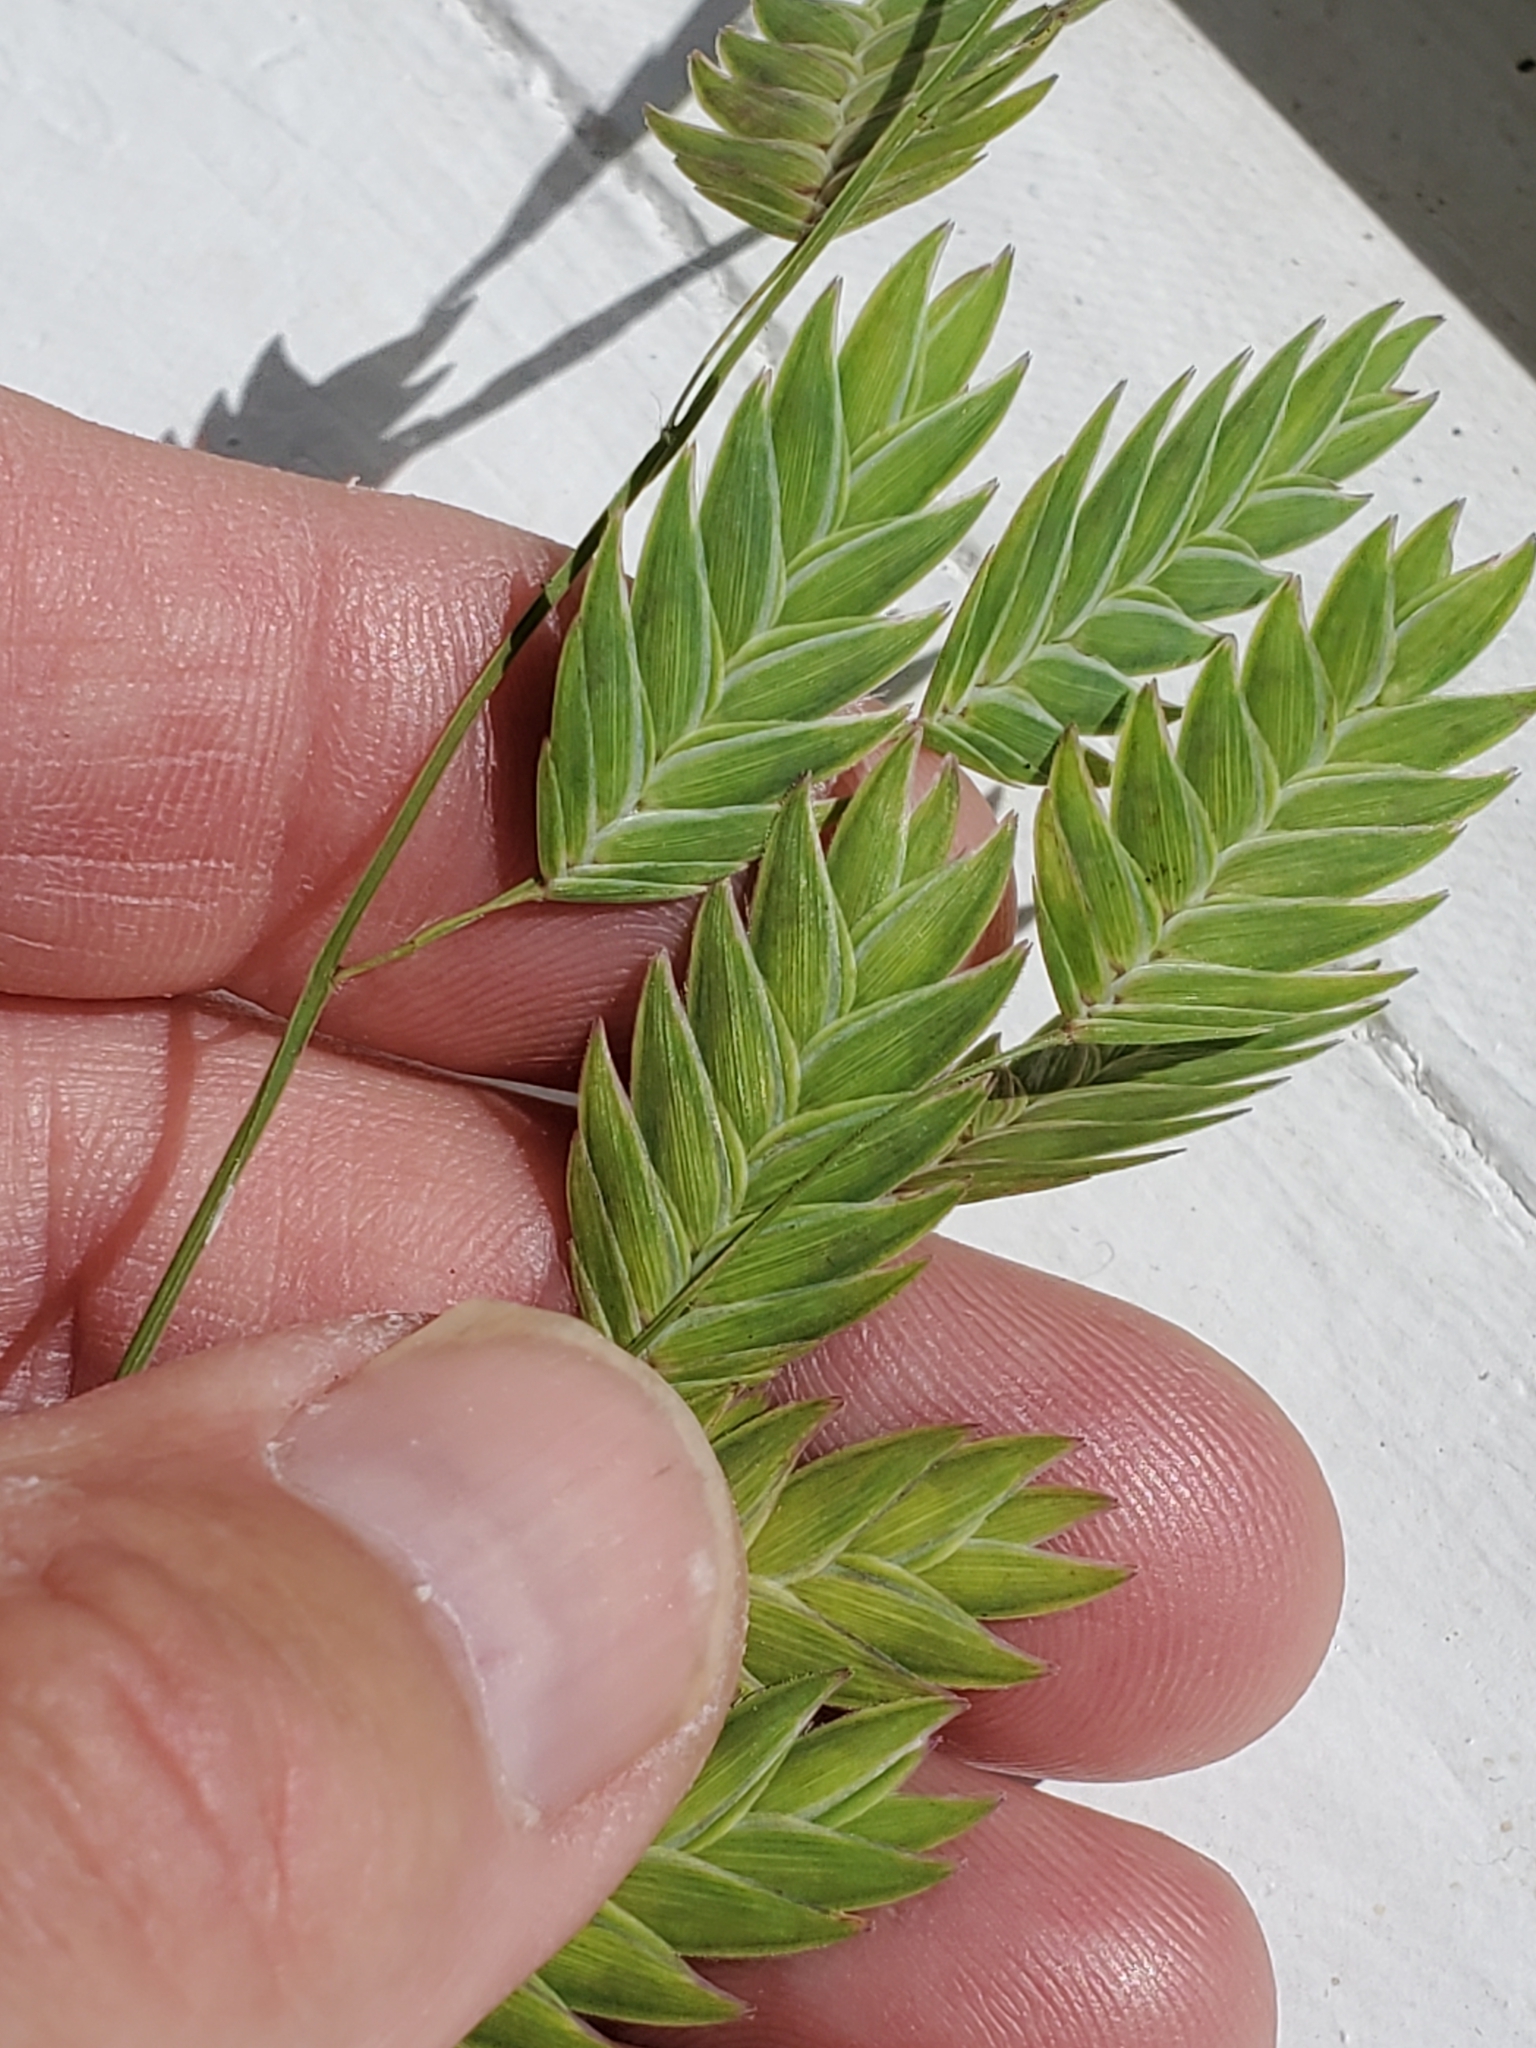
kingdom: Plantae
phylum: Tracheophyta
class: Liliopsida
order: Poales
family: Poaceae
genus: Chasmanthium
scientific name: Chasmanthium latifolium
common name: Broad-leaved chasmanthium
